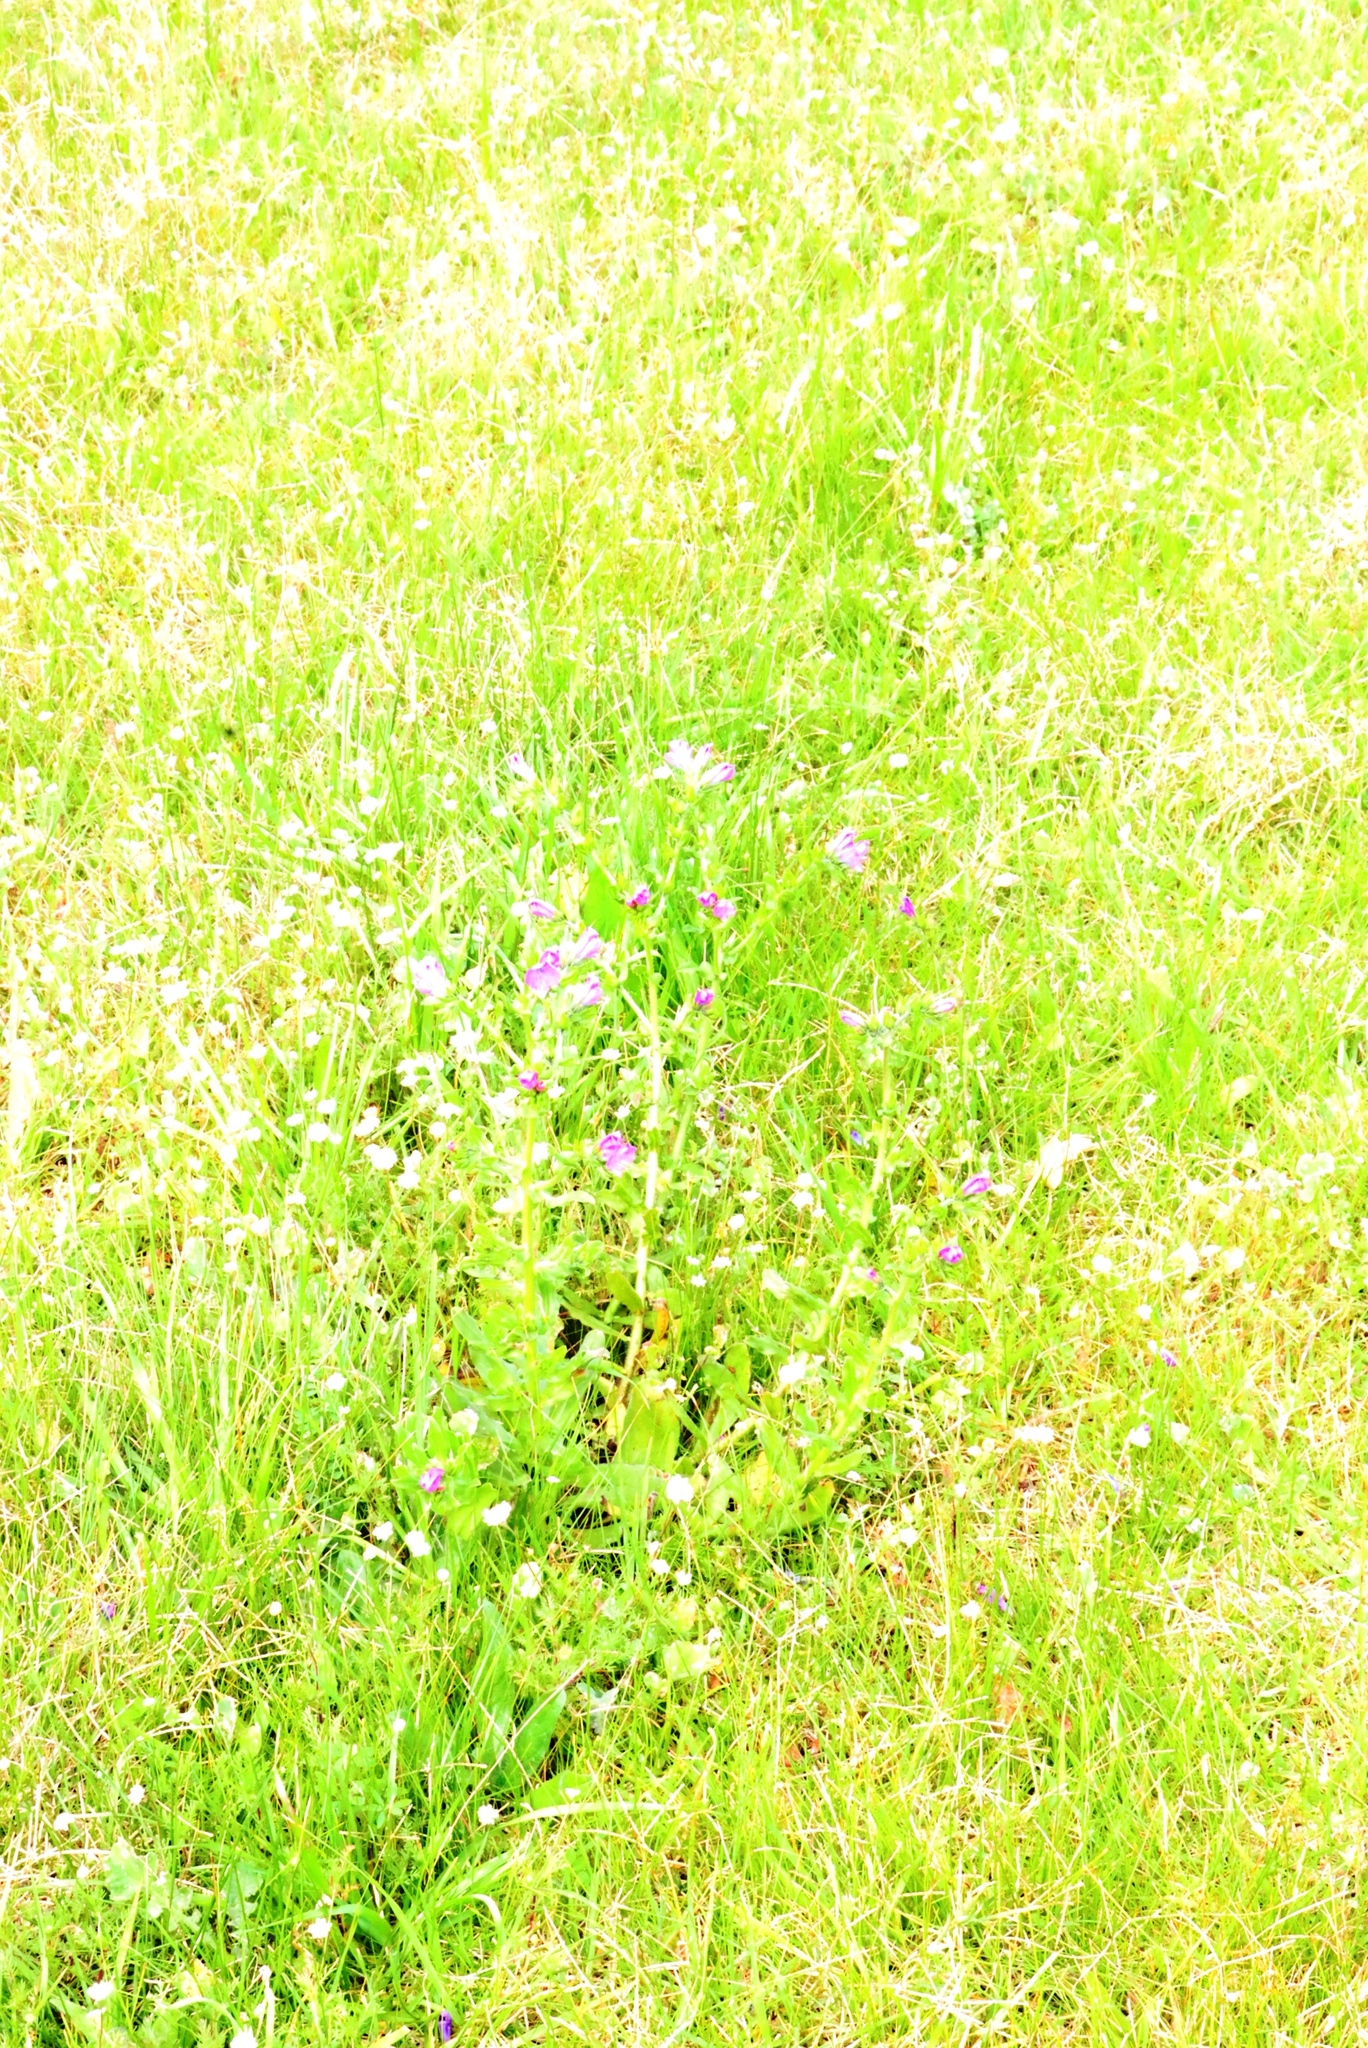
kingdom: Plantae
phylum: Tracheophyta
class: Magnoliopsida
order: Boraginales
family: Boraginaceae
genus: Echium
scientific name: Echium plantagineum
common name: Purple viper's-bugloss
